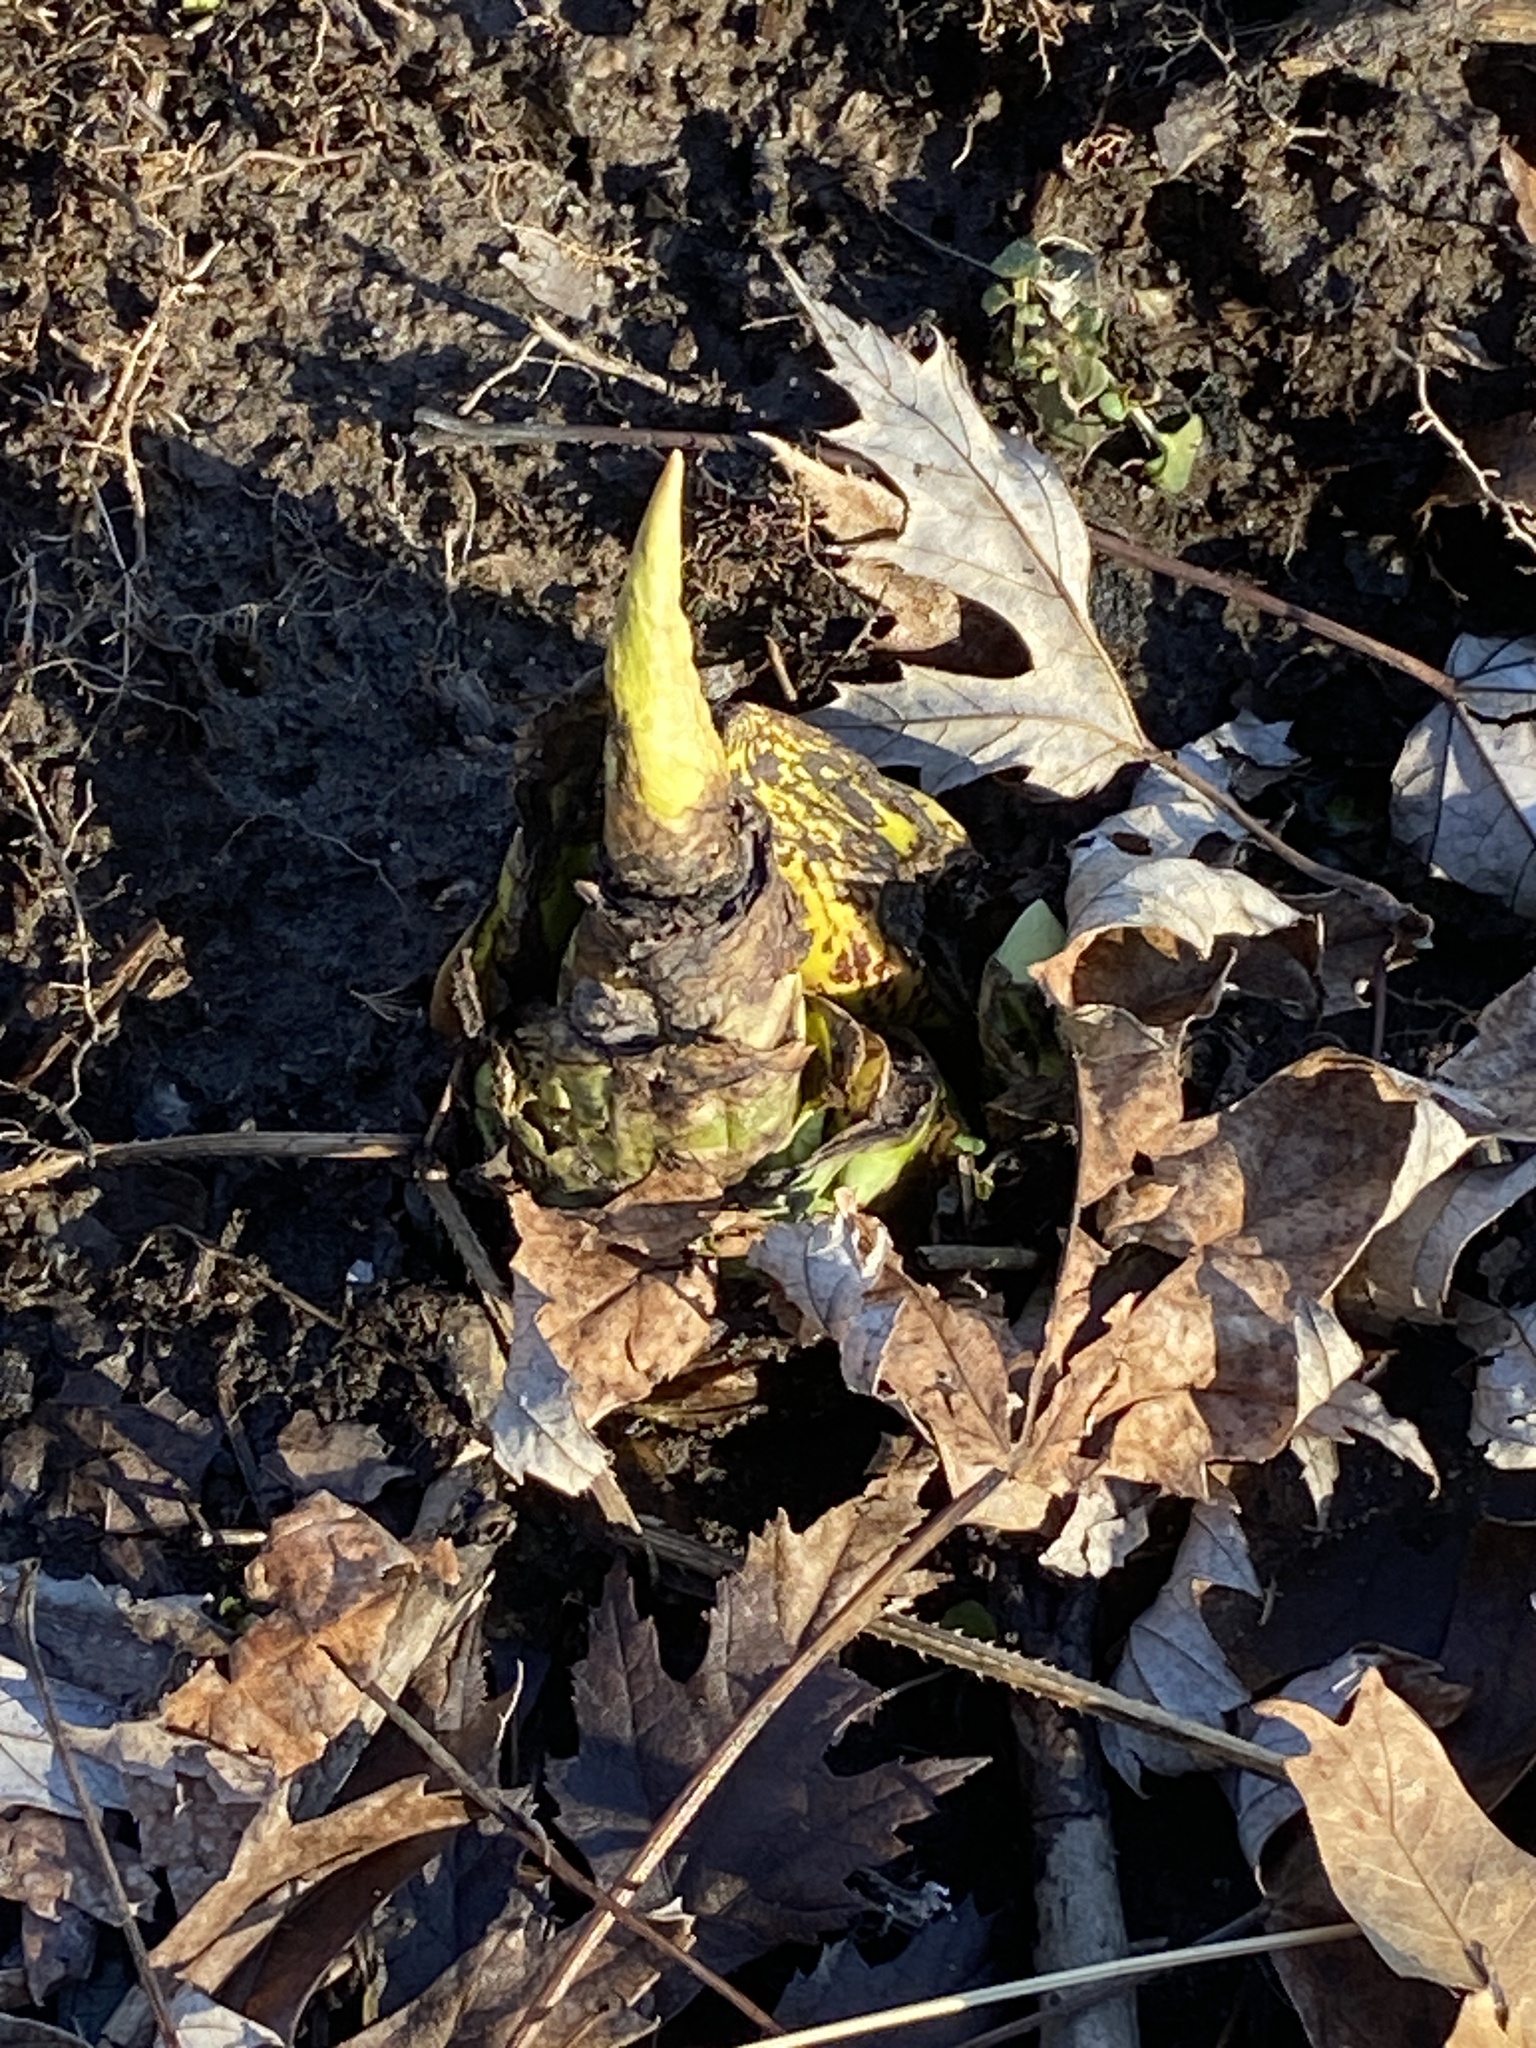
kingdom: Plantae
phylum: Tracheophyta
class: Liliopsida
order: Alismatales
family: Araceae
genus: Symplocarpus
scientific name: Symplocarpus foetidus
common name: Eastern skunk cabbage
